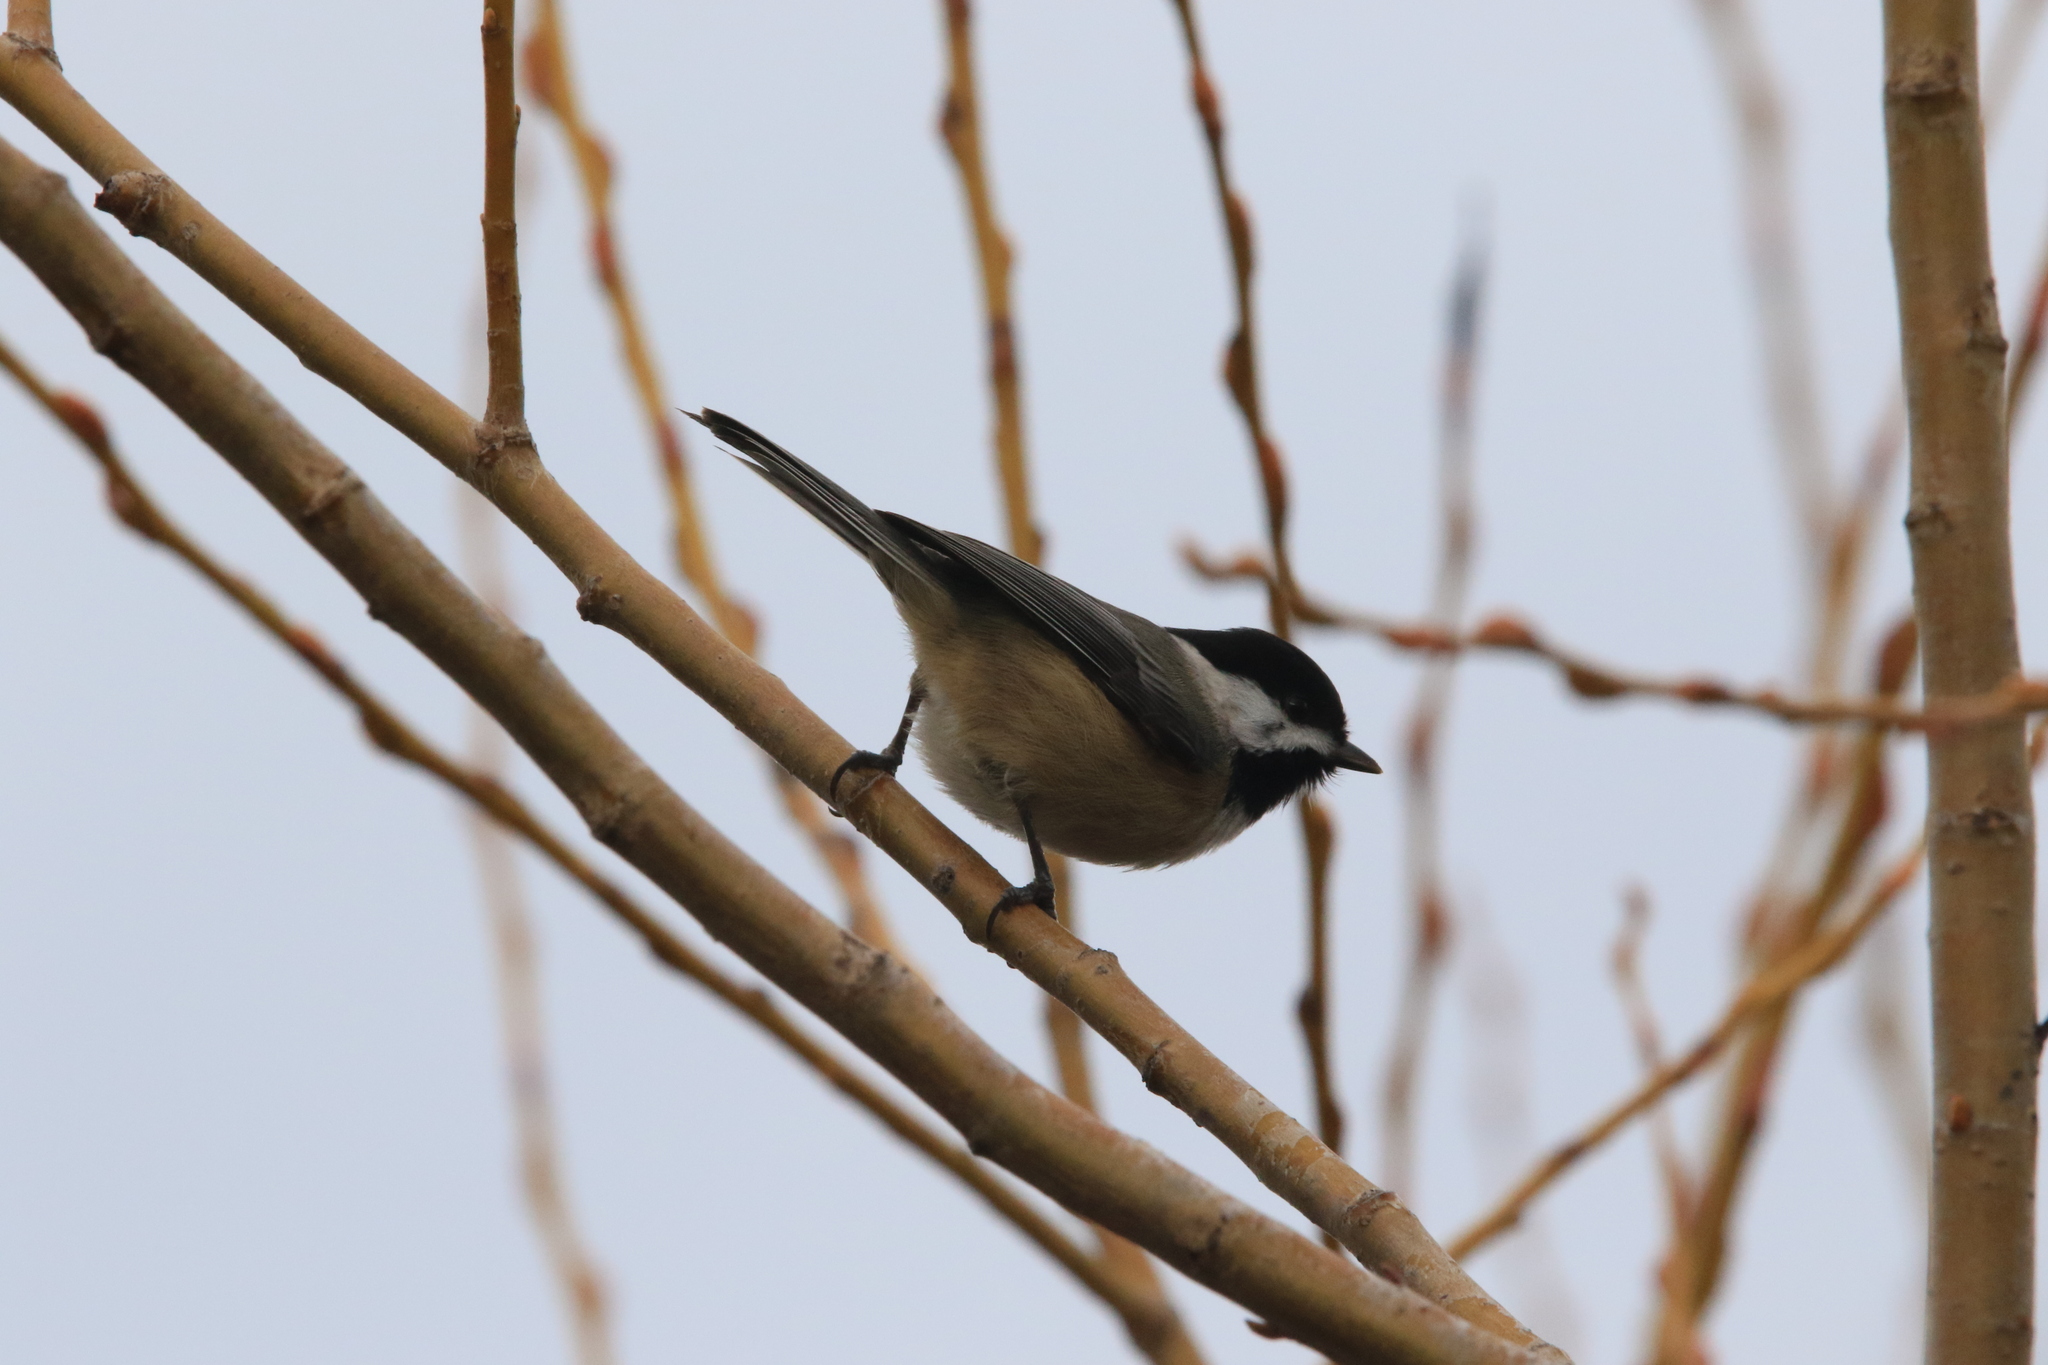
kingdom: Animalia
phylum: Chordata
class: Aves
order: Passeriformes
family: Paridae
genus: Poecile
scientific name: Poecile atricapillus
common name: Black-capped chickadee
